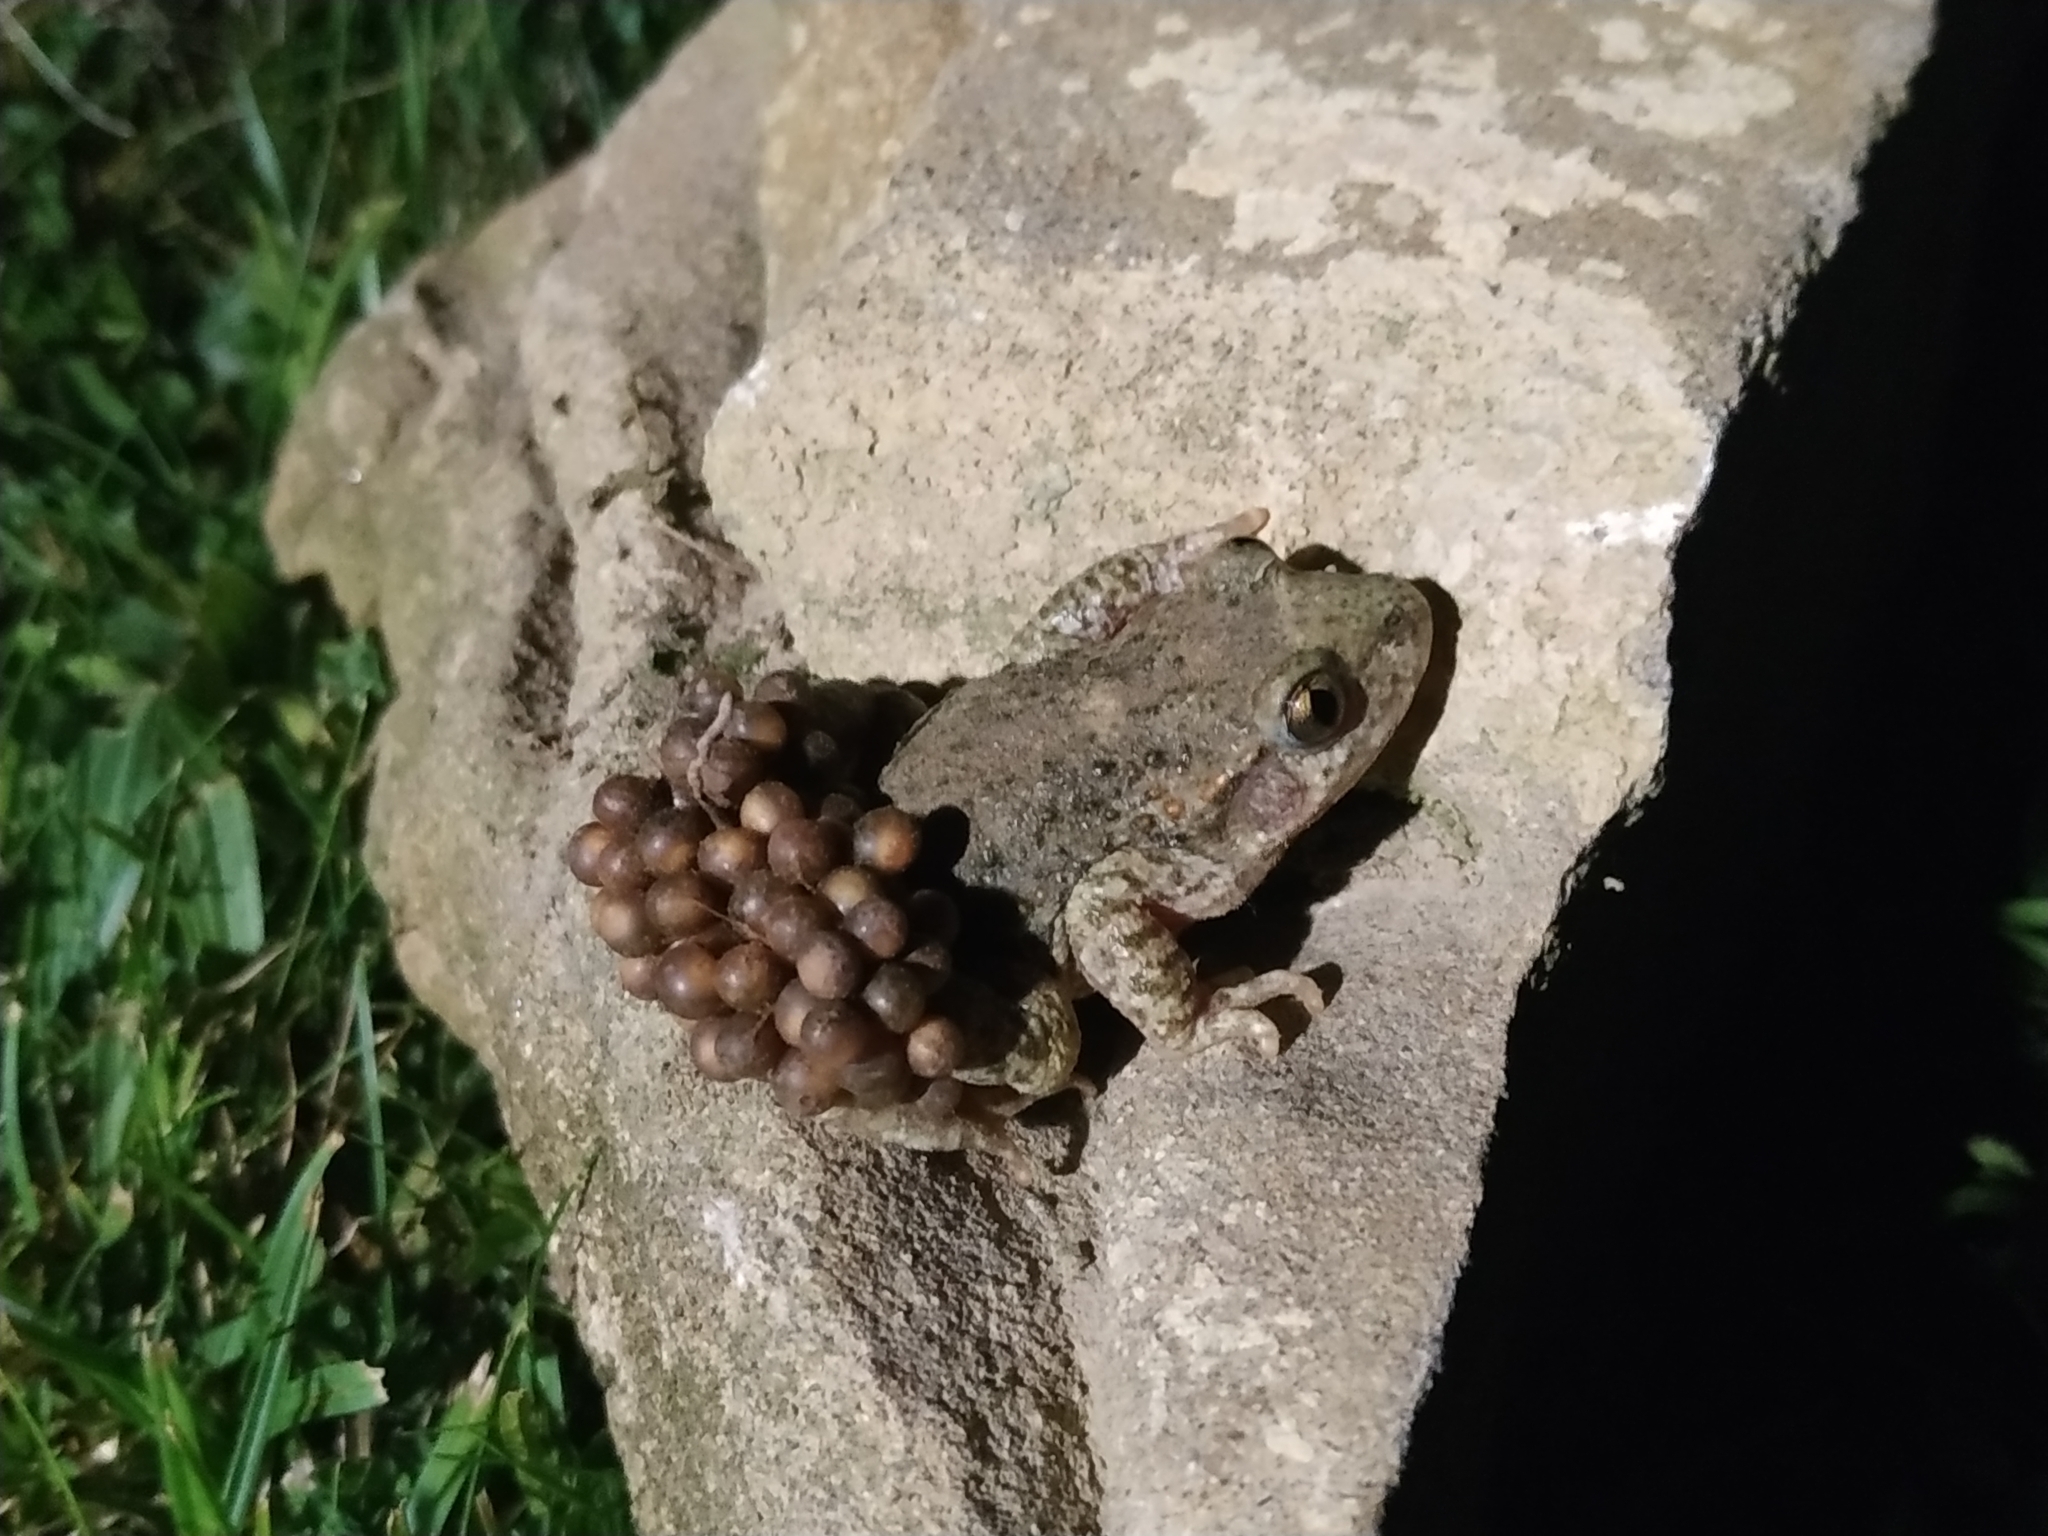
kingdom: Animalia
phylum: Chordata
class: Amphibia
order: Anura
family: Alytidae
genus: Alytes
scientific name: Alytes obstetricans
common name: Midwife toad
